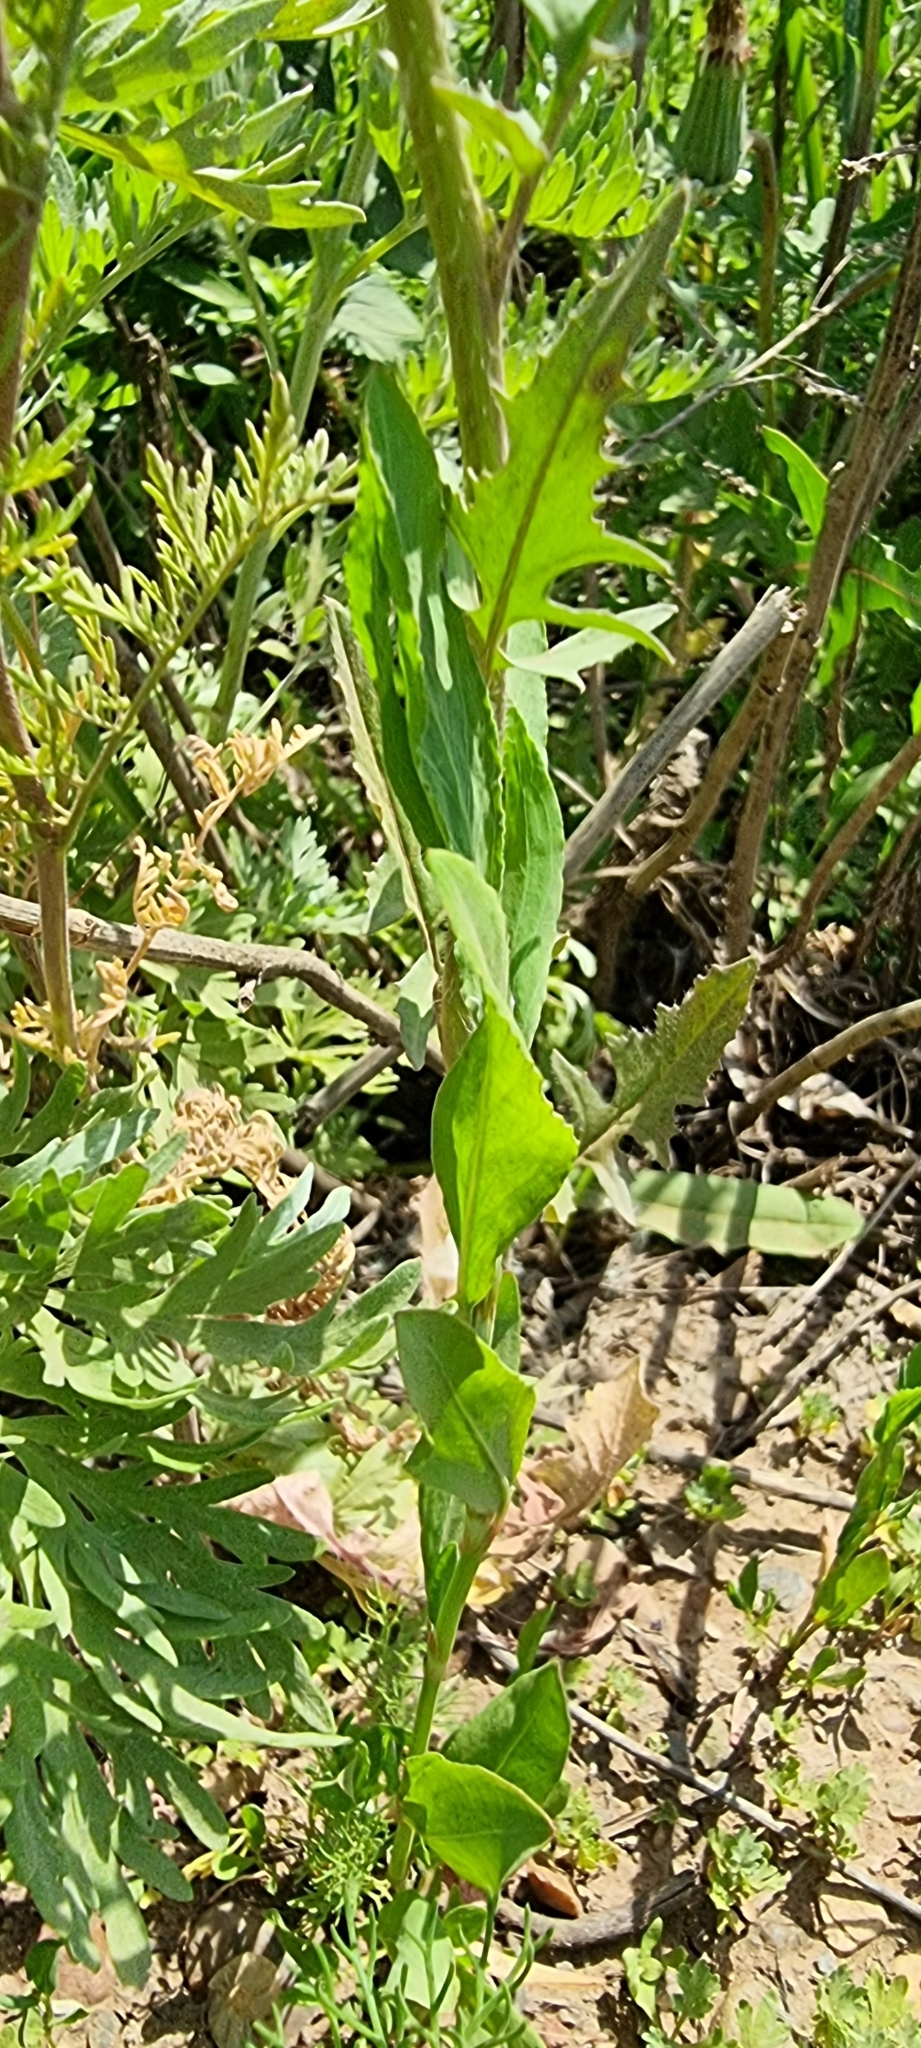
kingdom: Plantae
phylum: Tracheophyta
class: Magnoliopsida
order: Brassicales
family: Brassicaceae
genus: Sisymbrium
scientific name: Sisymbrium volgense
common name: Russian mustard
